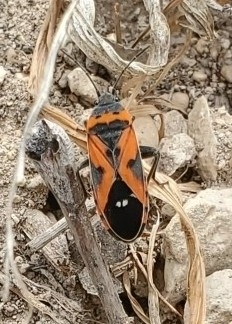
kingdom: Animalia
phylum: Arthropoda
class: Insecta
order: Hemiptera
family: Lygaeidae
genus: Lygaeus
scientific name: Lygaeus reclivatus
